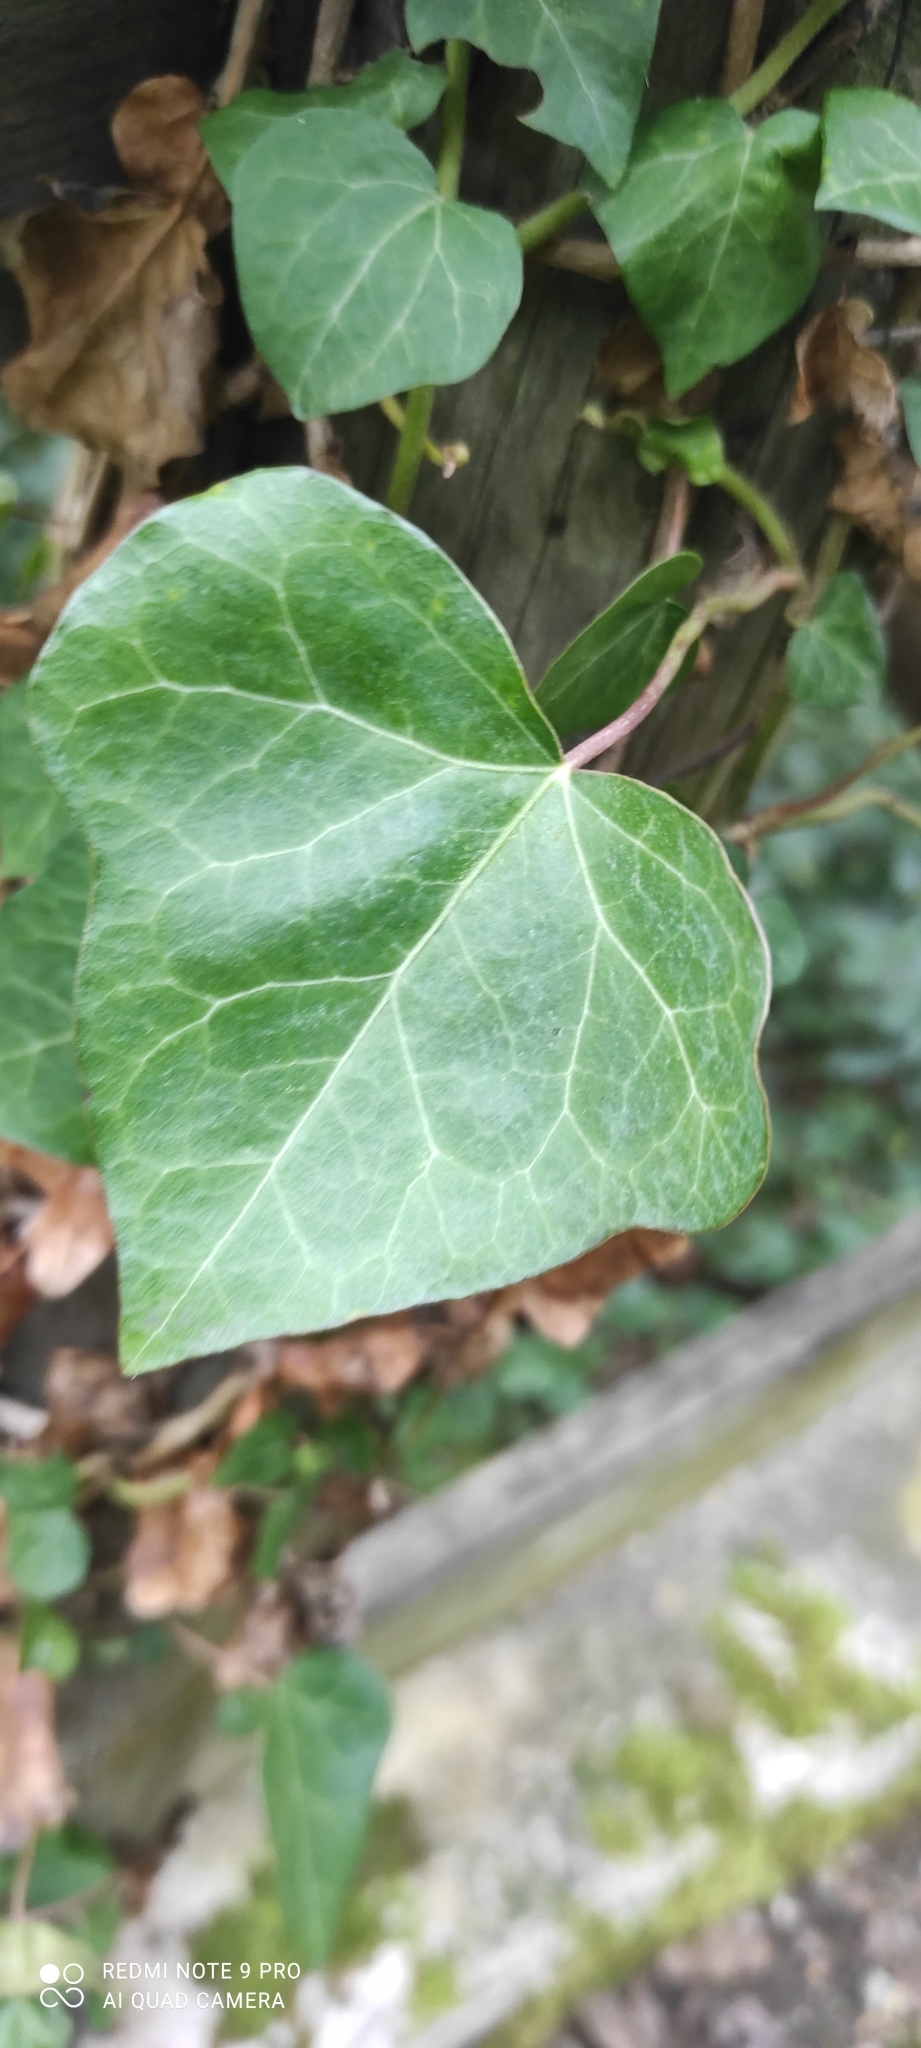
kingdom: Plantae
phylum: Tracheophyta
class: Magnoliopsida
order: Apiales
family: Araliaceae
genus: Hedera
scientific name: Hedera helix
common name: Ivy
